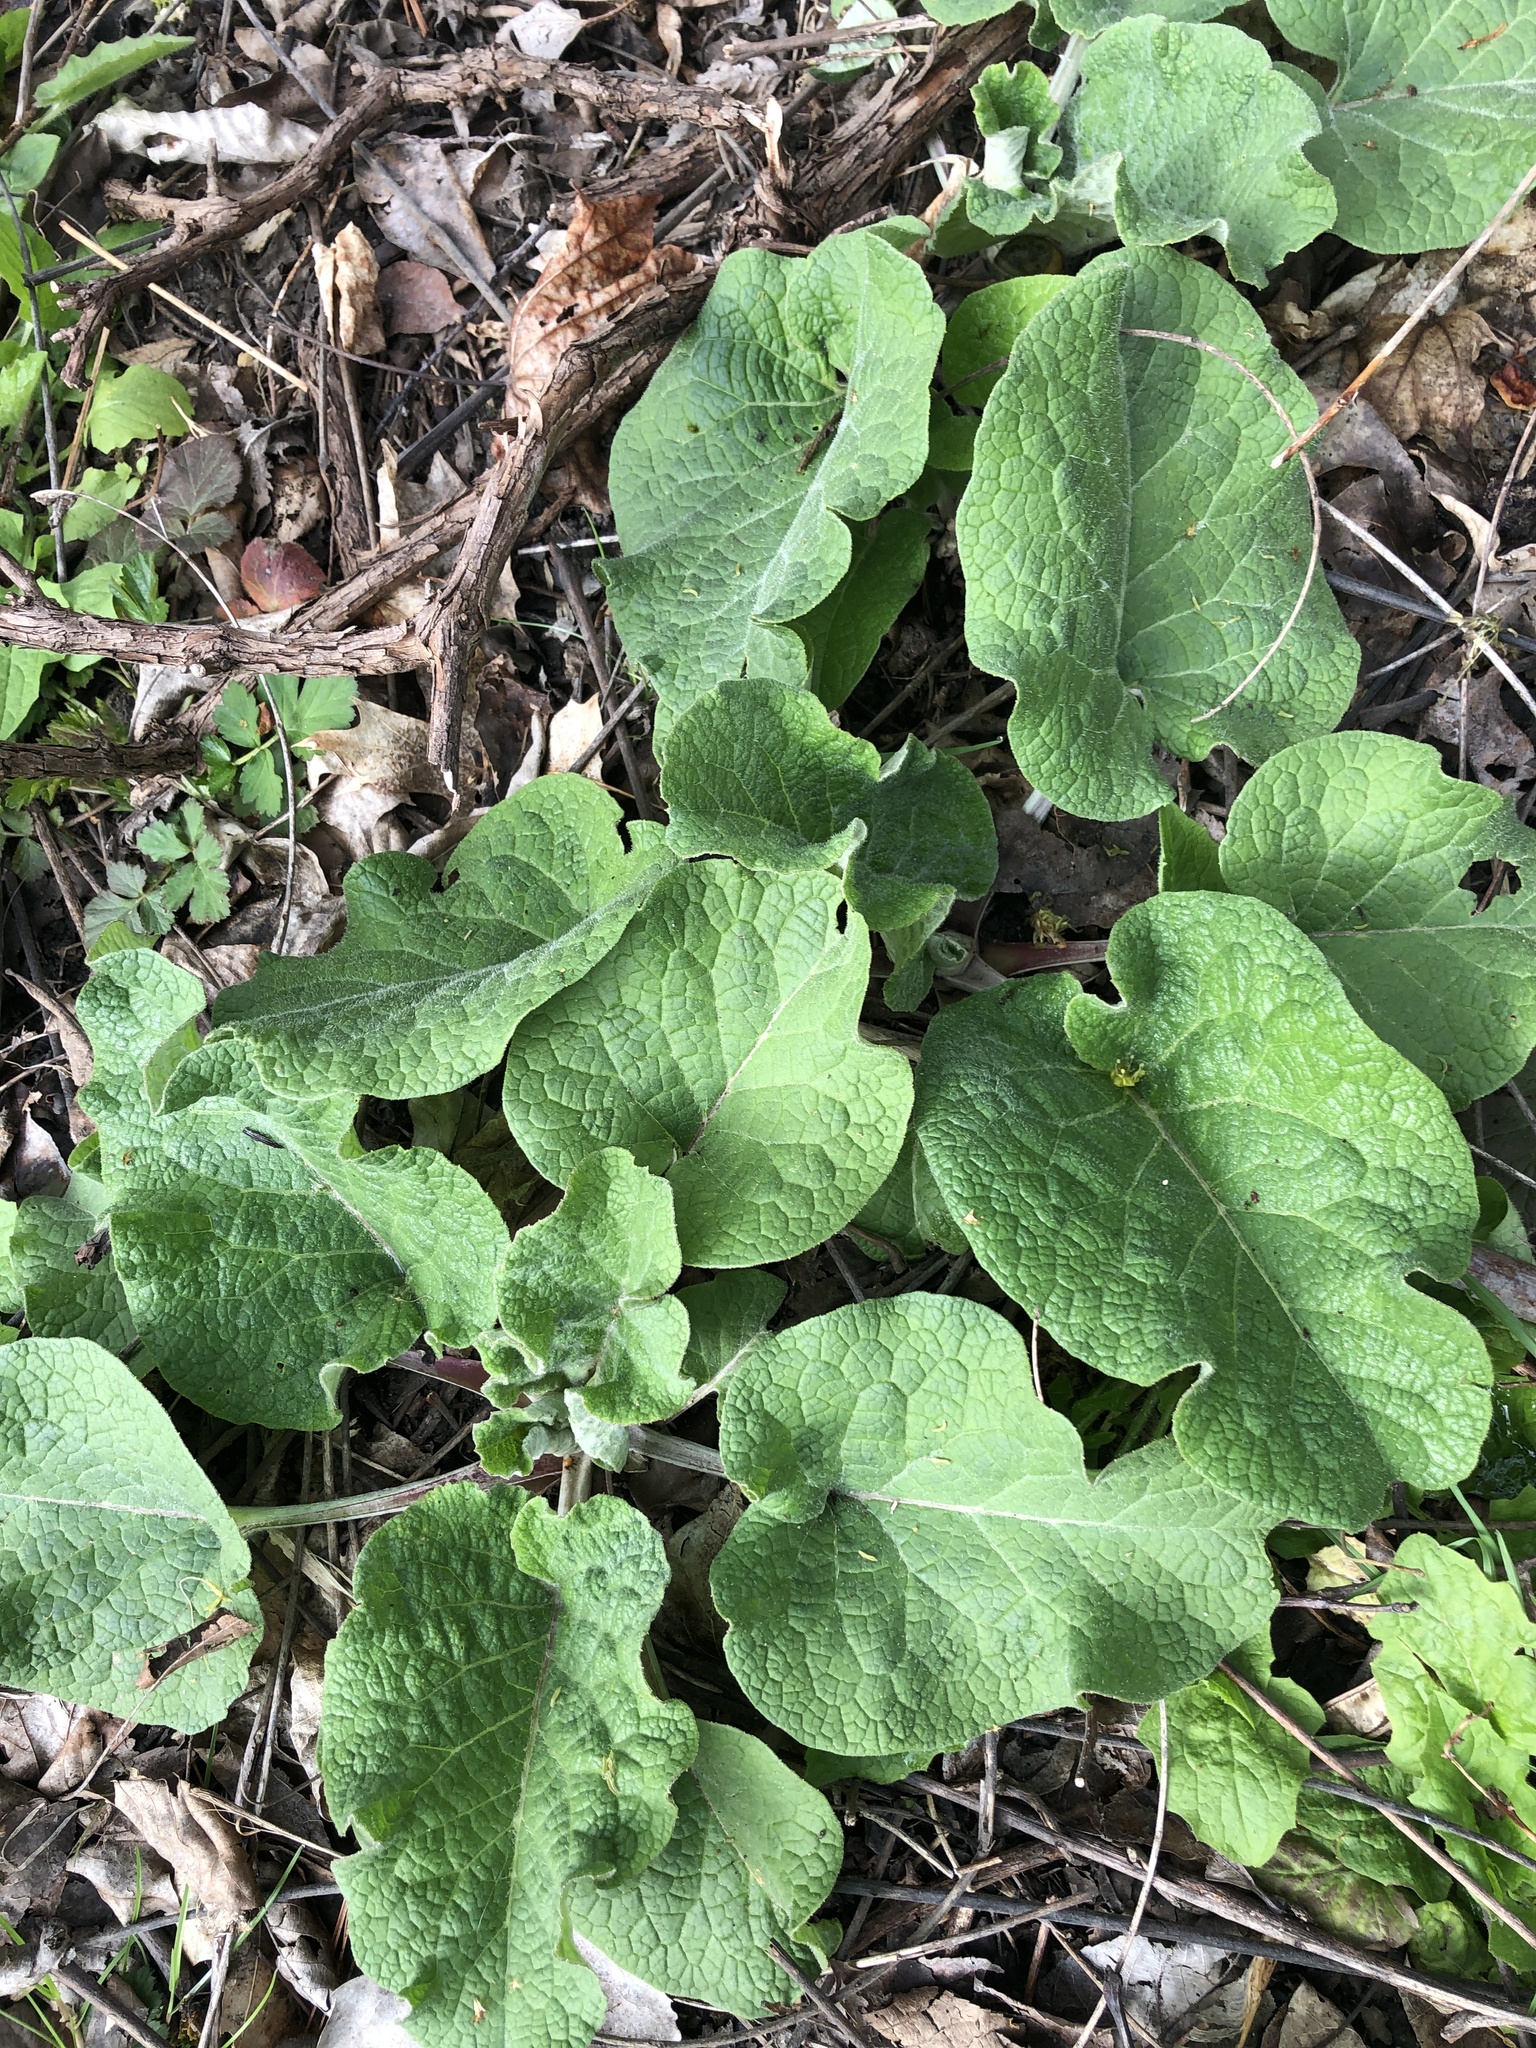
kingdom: Plantae
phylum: Tracheophyta
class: Magnoliopsida
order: Asterales
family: Asteraceae
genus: Arctium
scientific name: Arctium lappa
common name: Greater burdock
